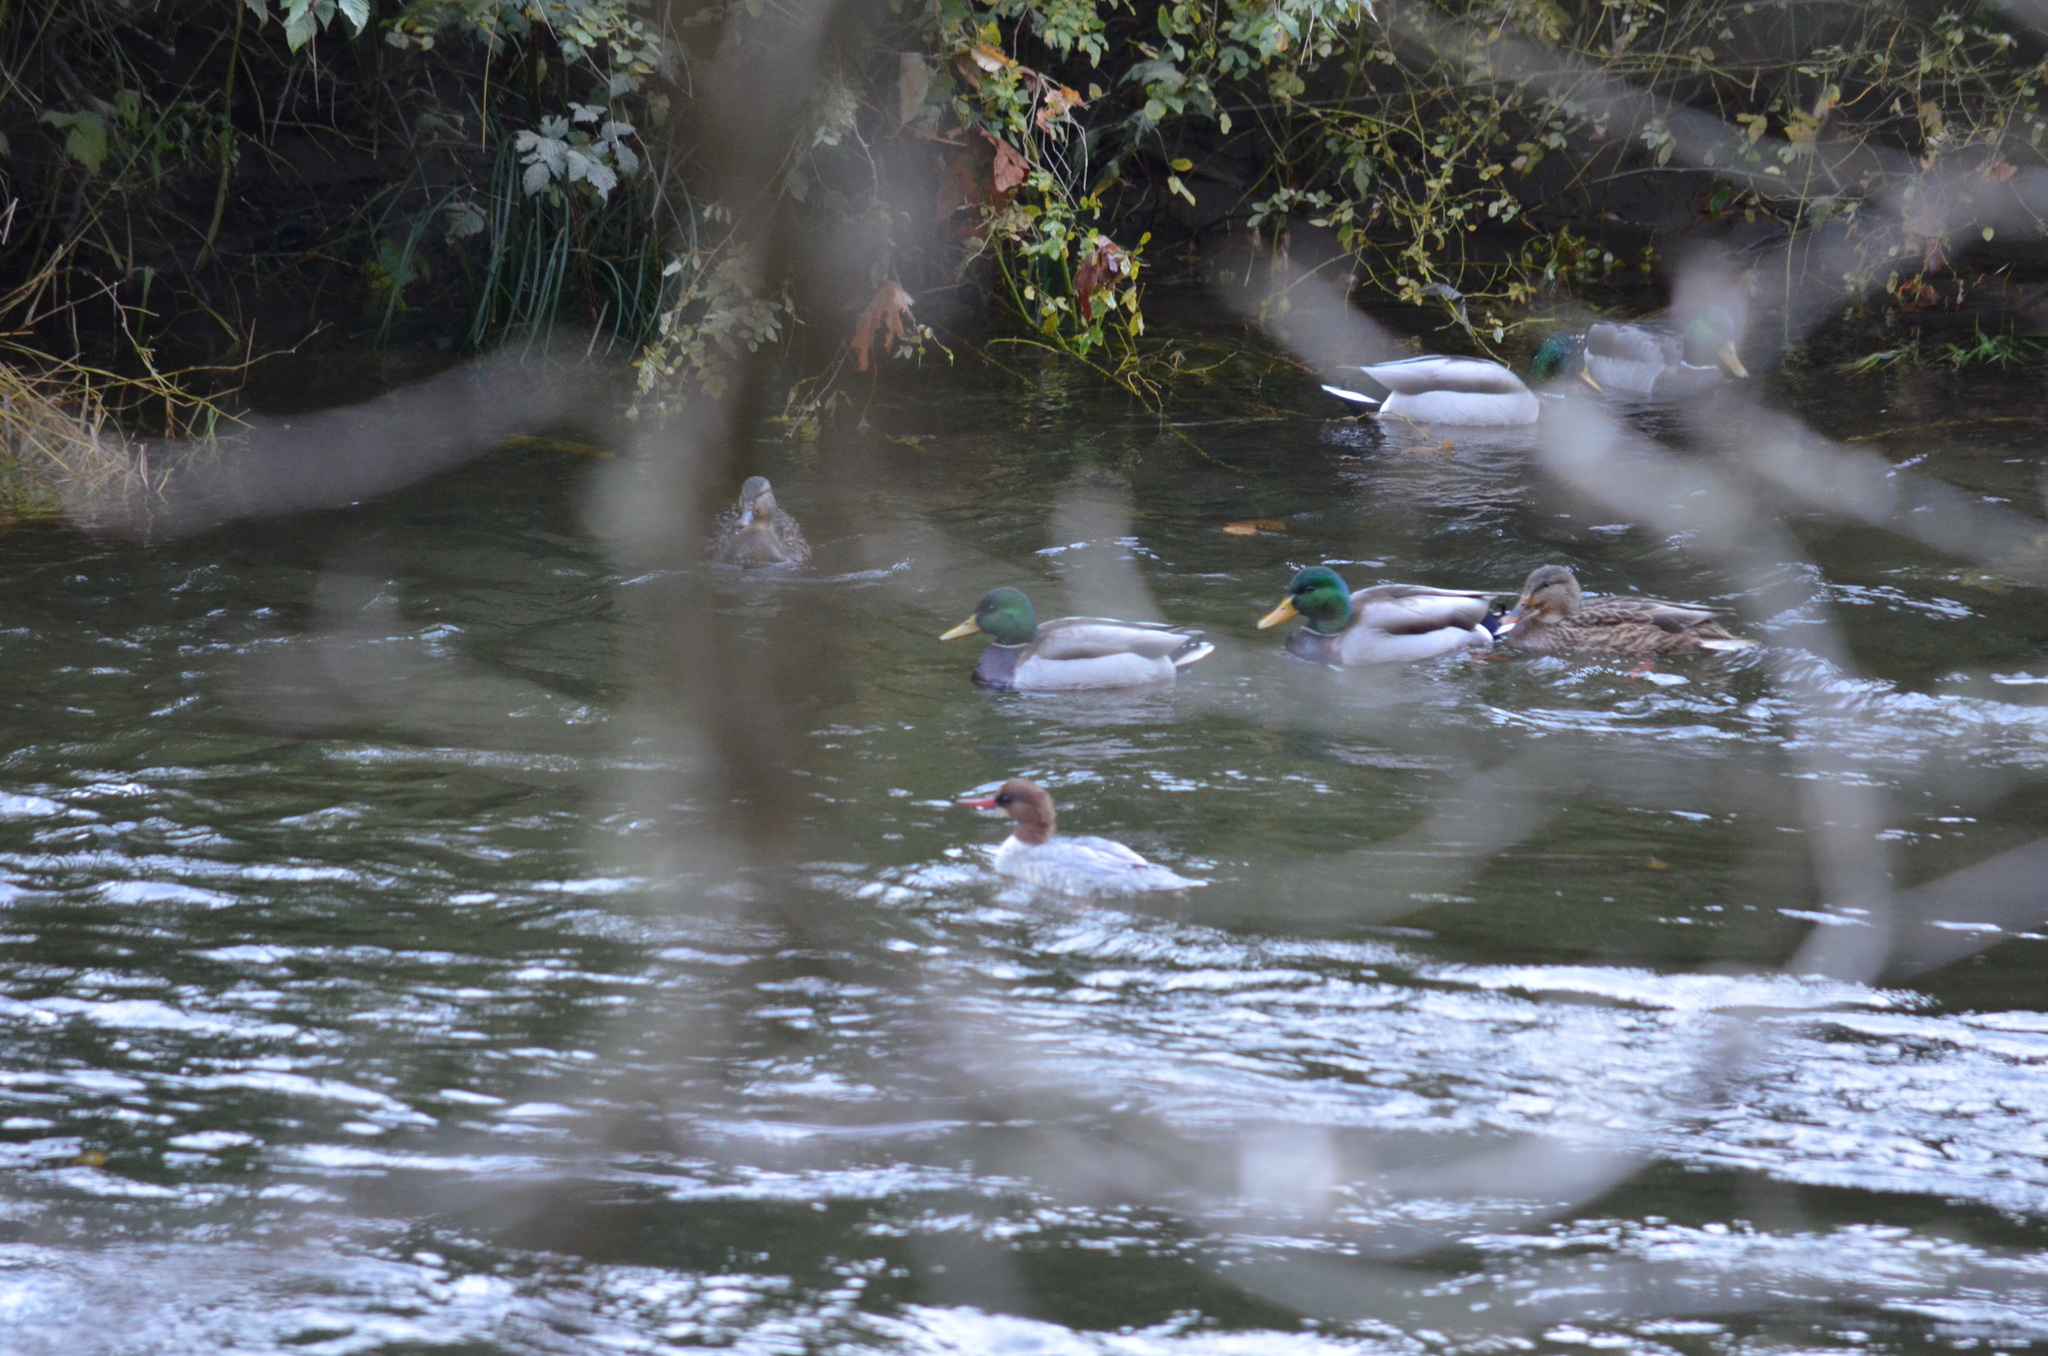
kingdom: Animalia
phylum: Chordata
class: Aves
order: Anseriformes
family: Anatidae
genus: Mergus
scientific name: Mergus merganser
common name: Common merganser
